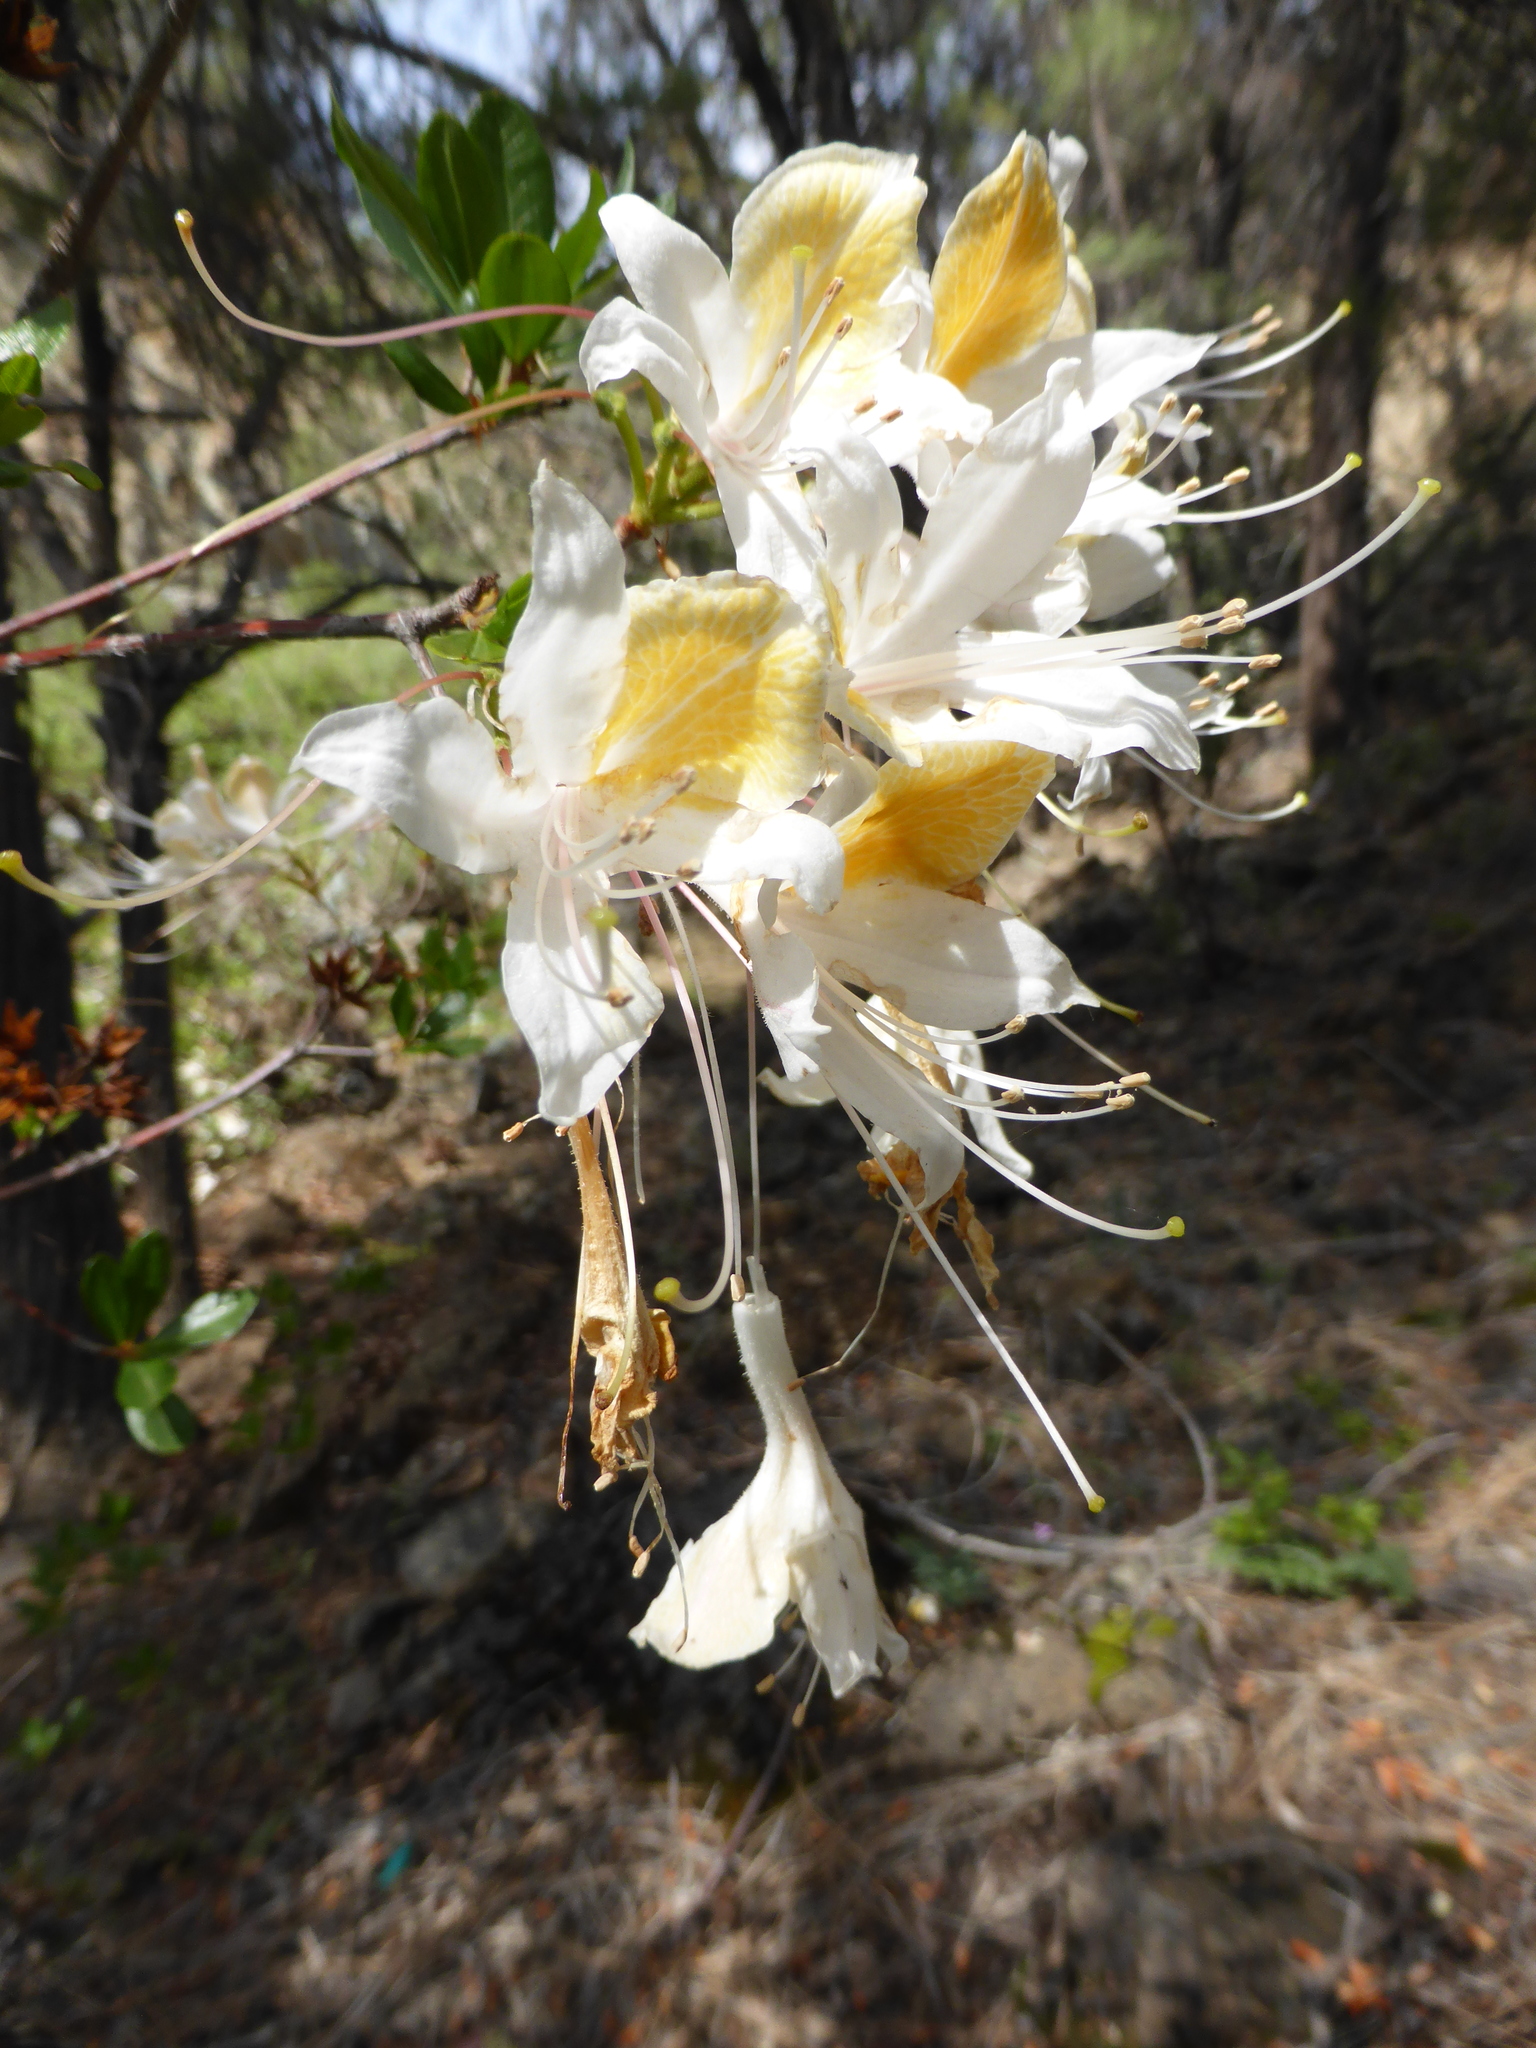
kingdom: Plantae
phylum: Tracheophyta
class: Magnoliopsida
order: Ericales
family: Ericaceae
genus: Rhododendron
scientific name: Rhododendron occidentale
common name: Western azalea
